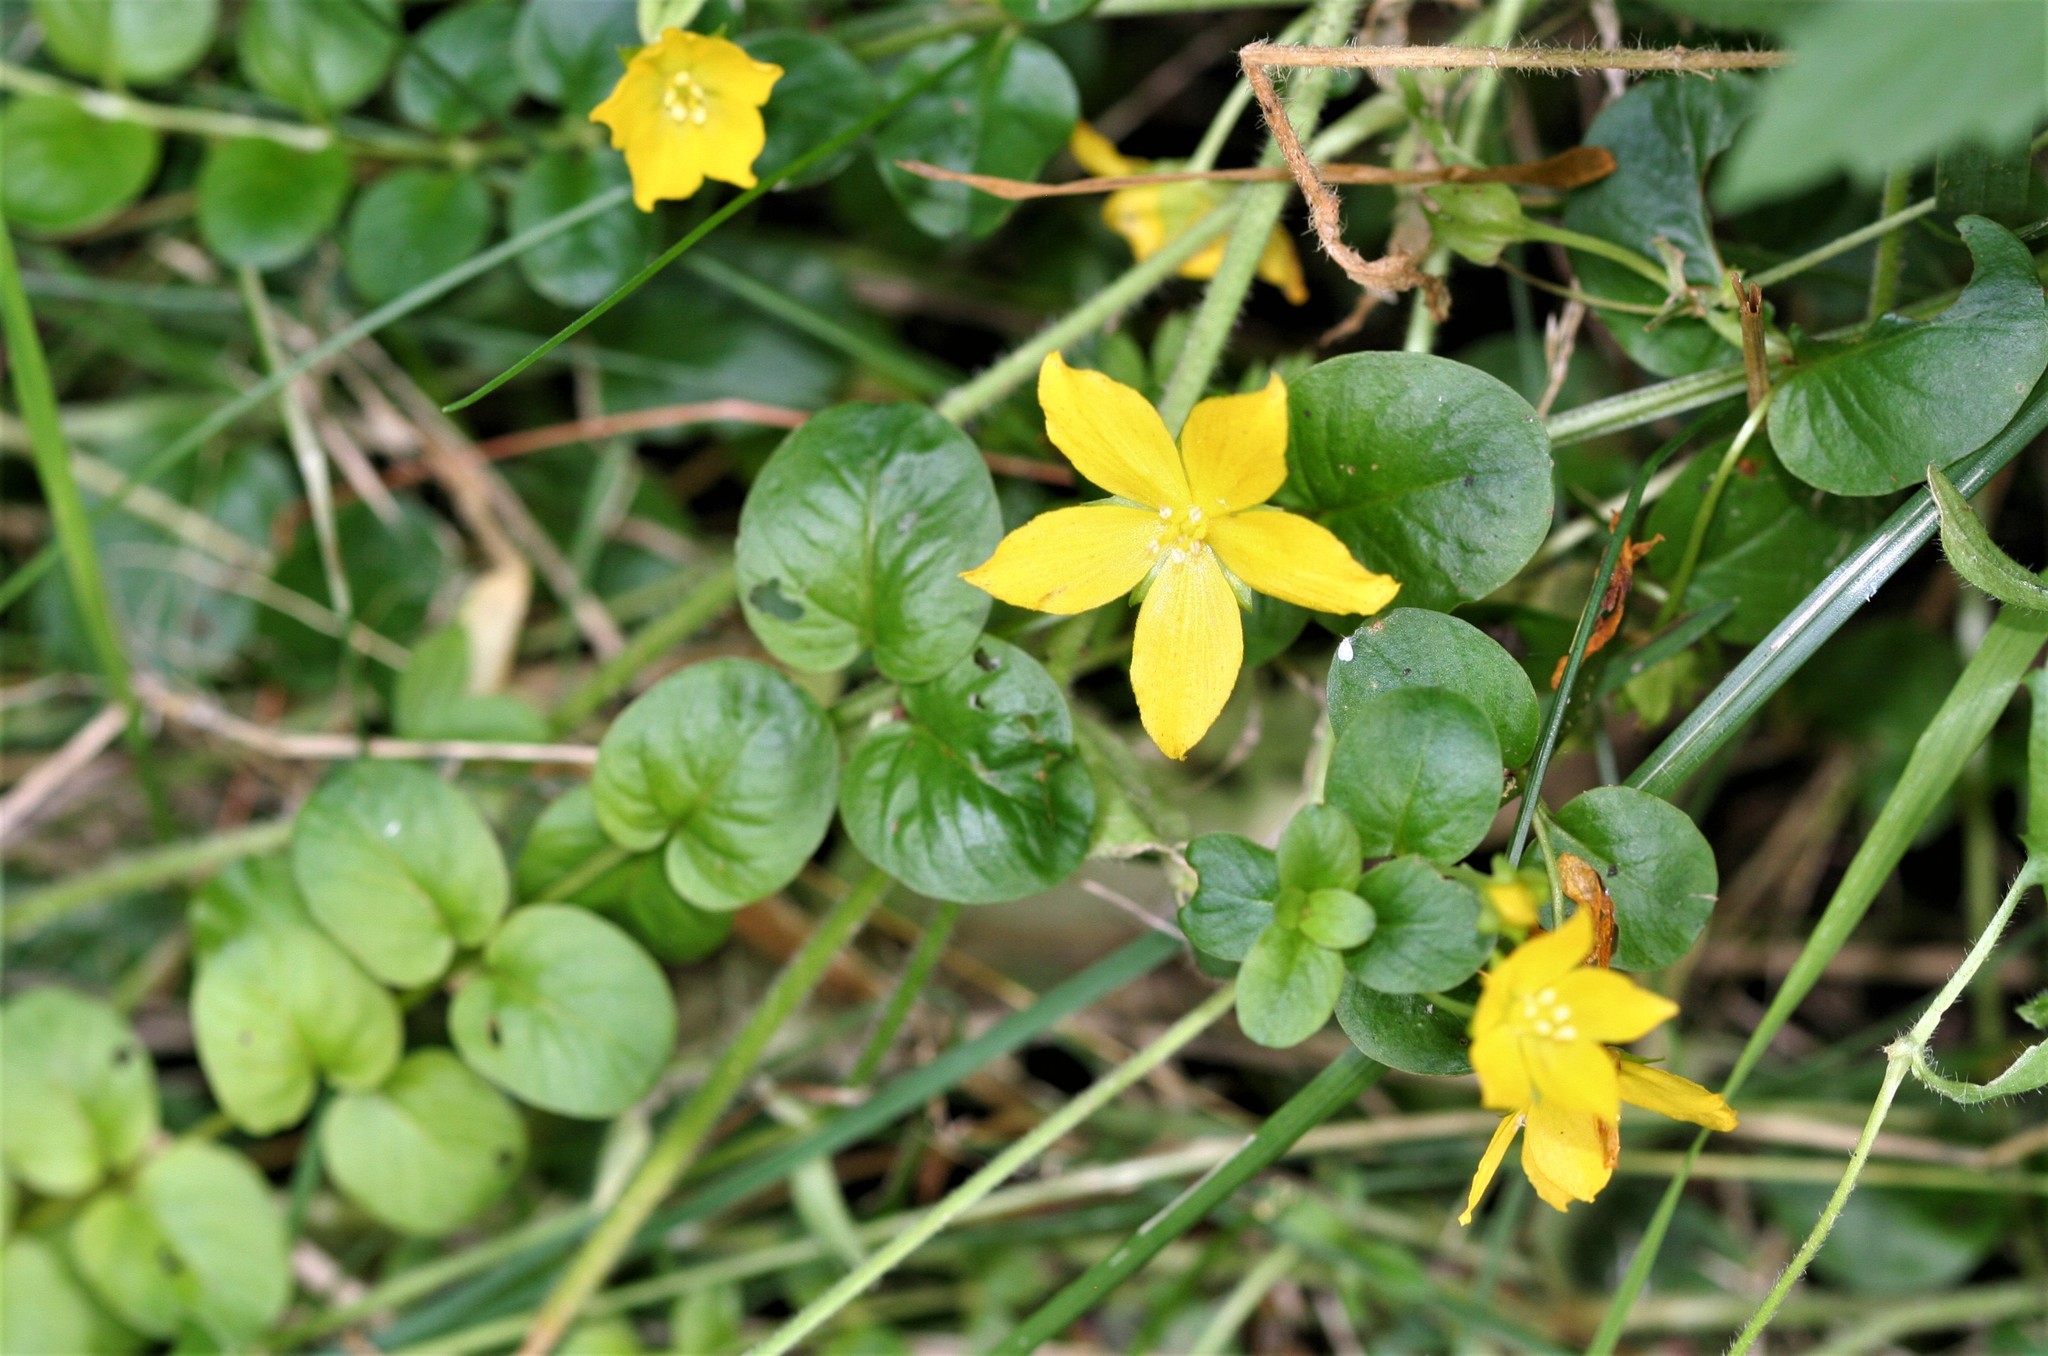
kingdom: Plantae
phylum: Tracheophyta
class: Magnoliopsida
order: Ericales
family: Primulaceae
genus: Lysimachia
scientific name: Lysimachia nummularia
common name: Moneywort
